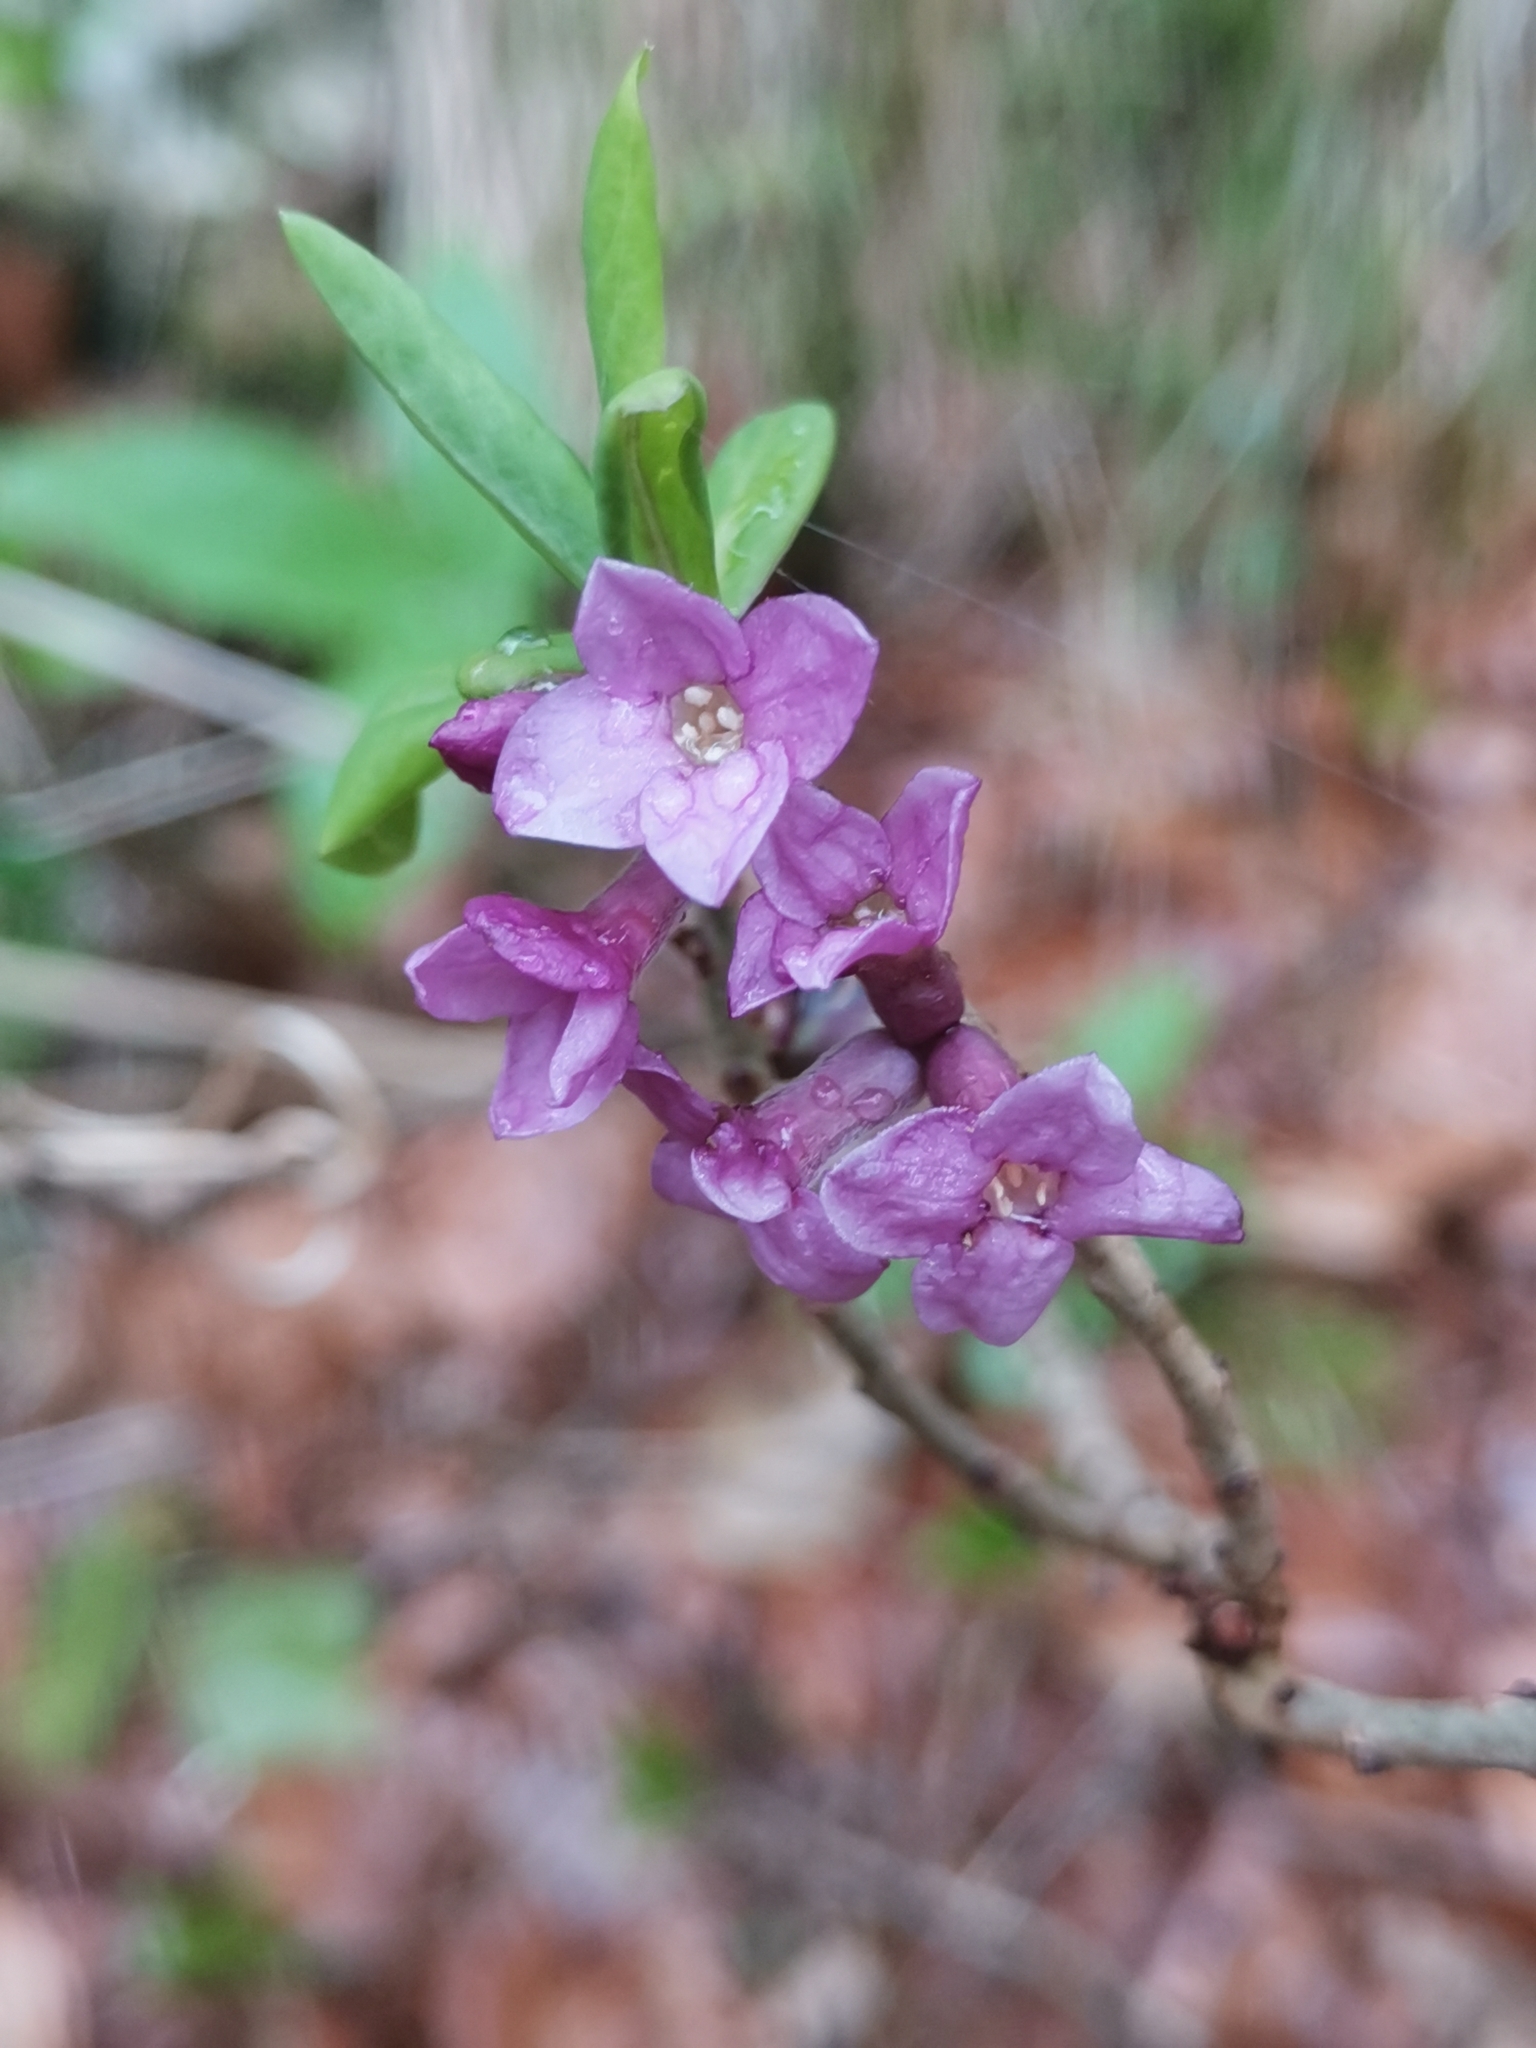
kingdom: Plantae
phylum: Tracheophyta
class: Magnoliopsida
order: Malvales
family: Thymelaeaceae
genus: Daphne
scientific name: Daphne mezereum
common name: Mezereon
